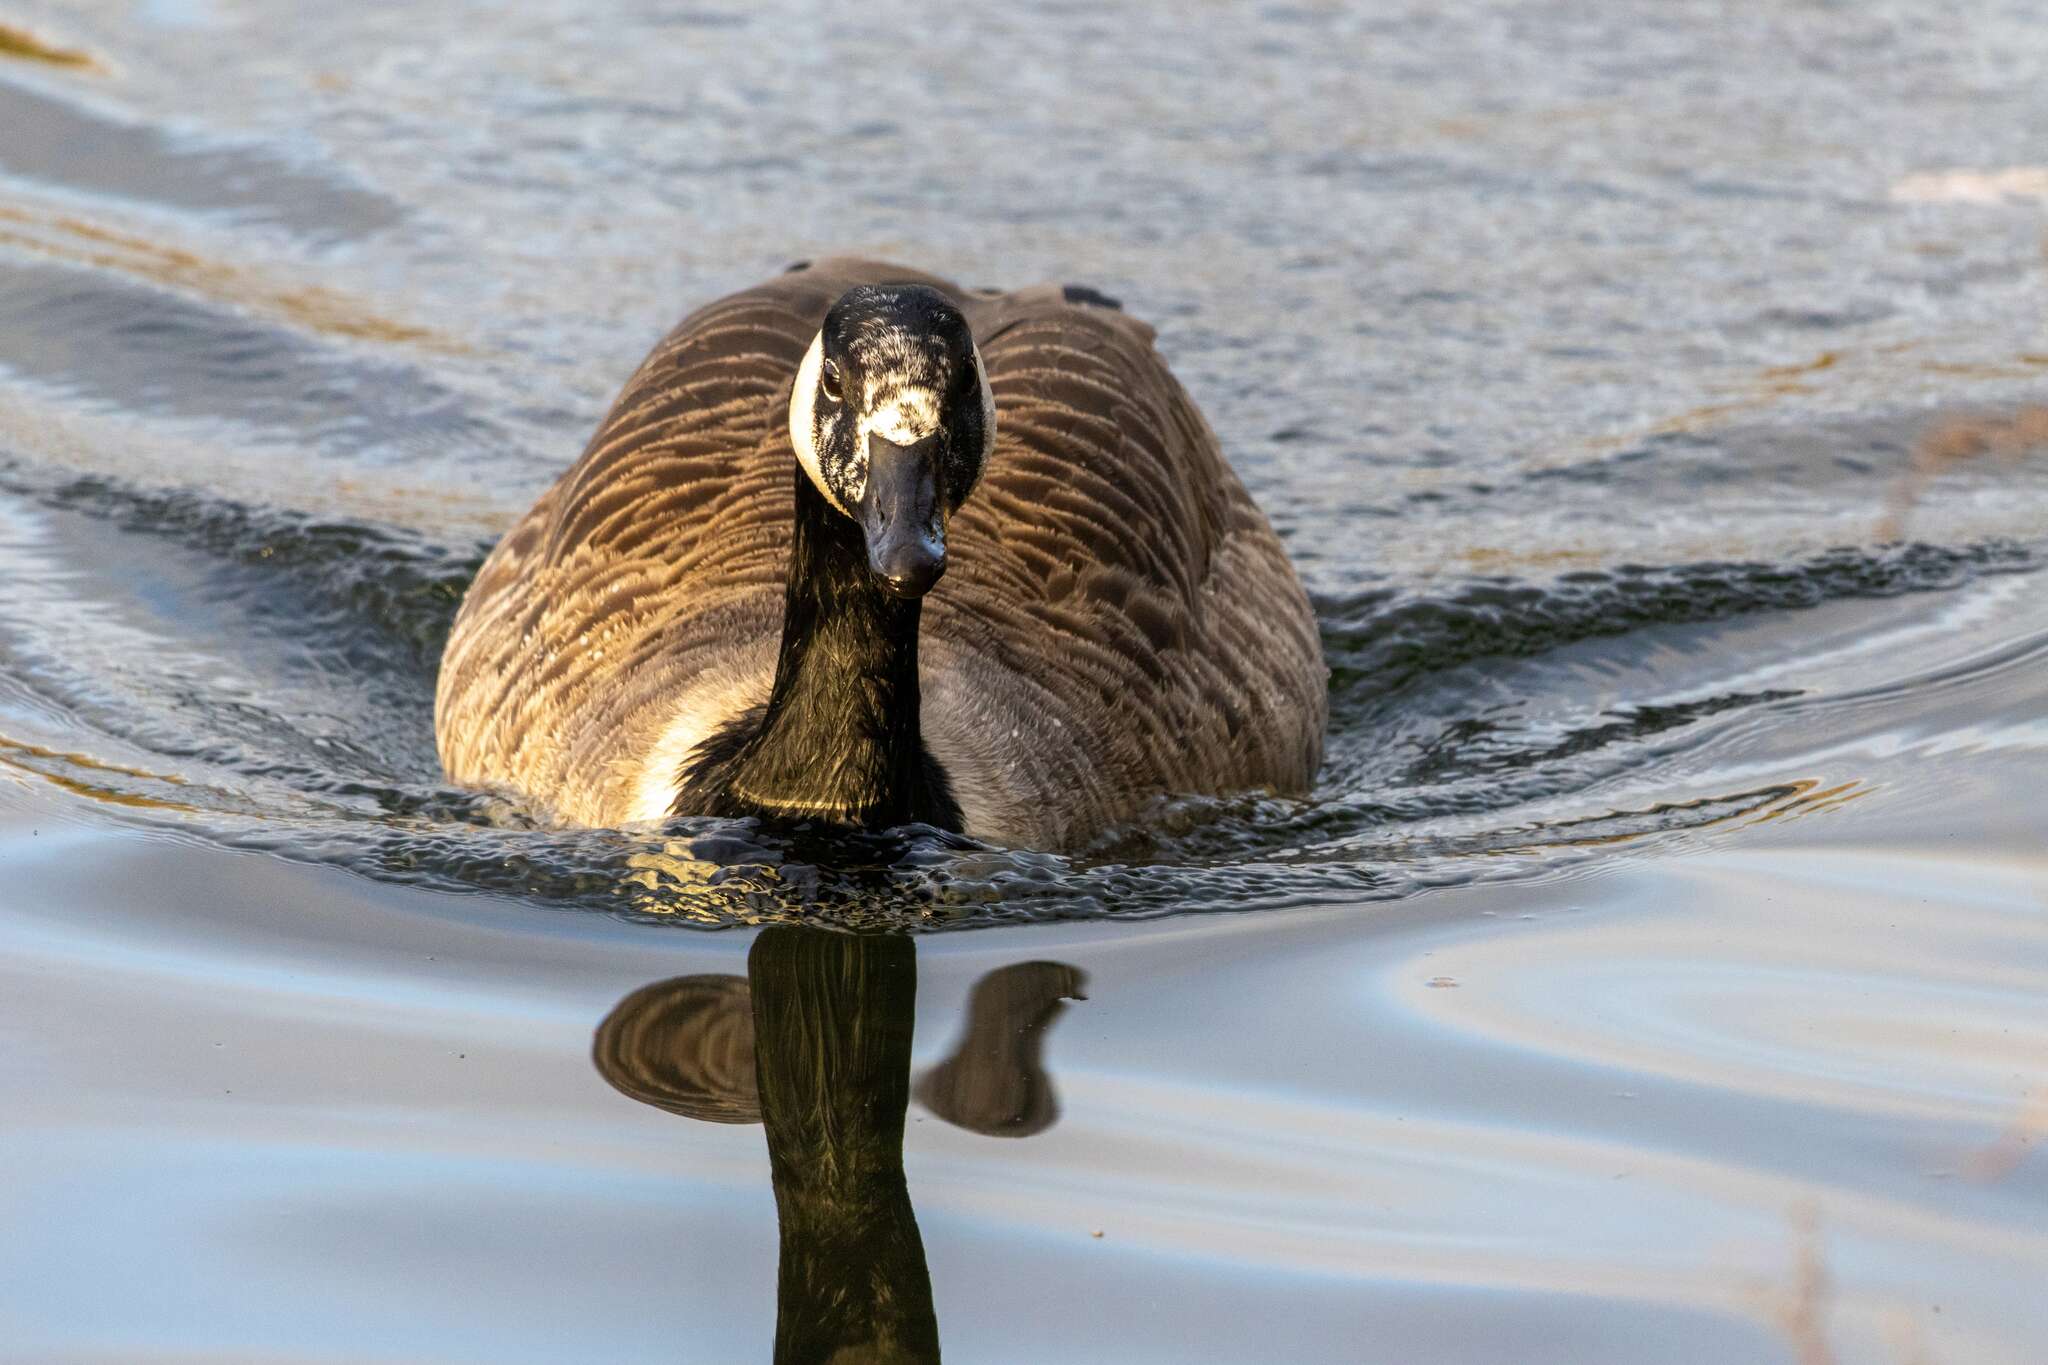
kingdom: Animalia
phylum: Chordata
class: Aves
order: Anseriformes
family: Anatidae
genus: Branta
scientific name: Branta canadensis
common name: Canada goose
